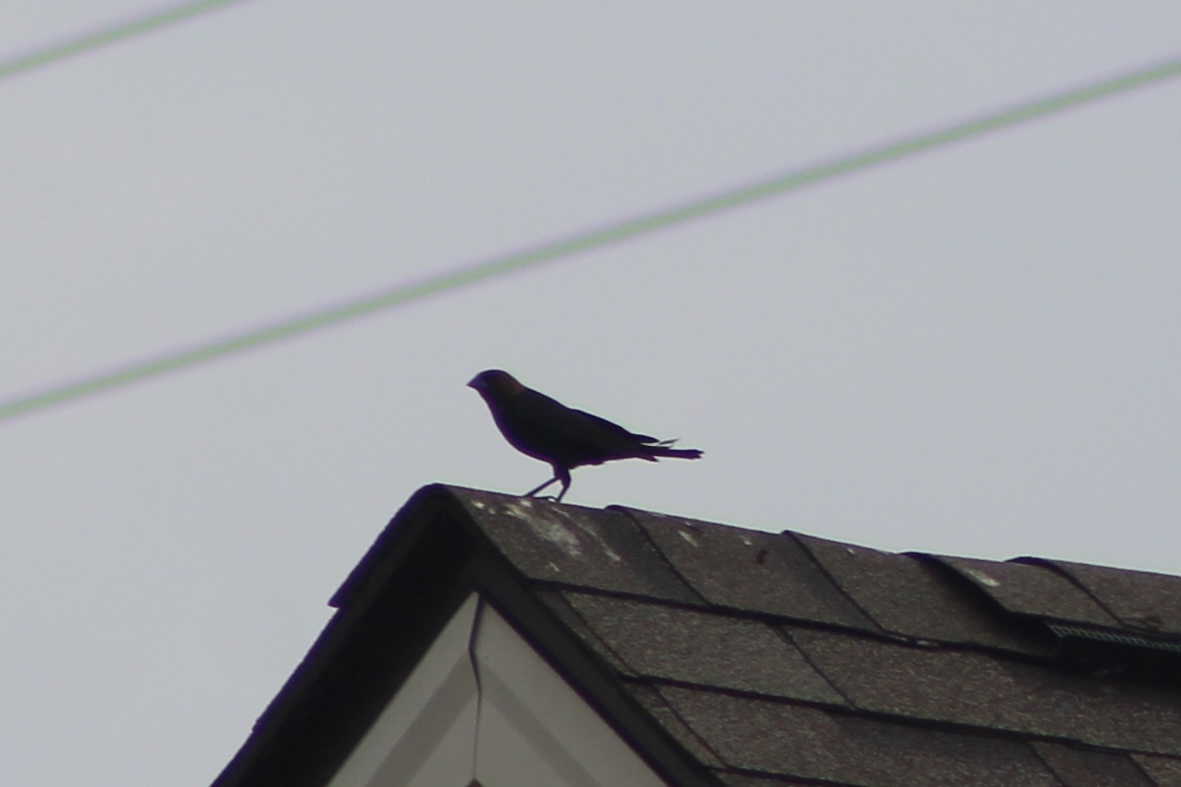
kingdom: Animalia
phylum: Chordata
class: Aves
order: Passeriformes
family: Icteridae
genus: Molothrus
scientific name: Molothrus ater
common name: Brown-headed cowbird
